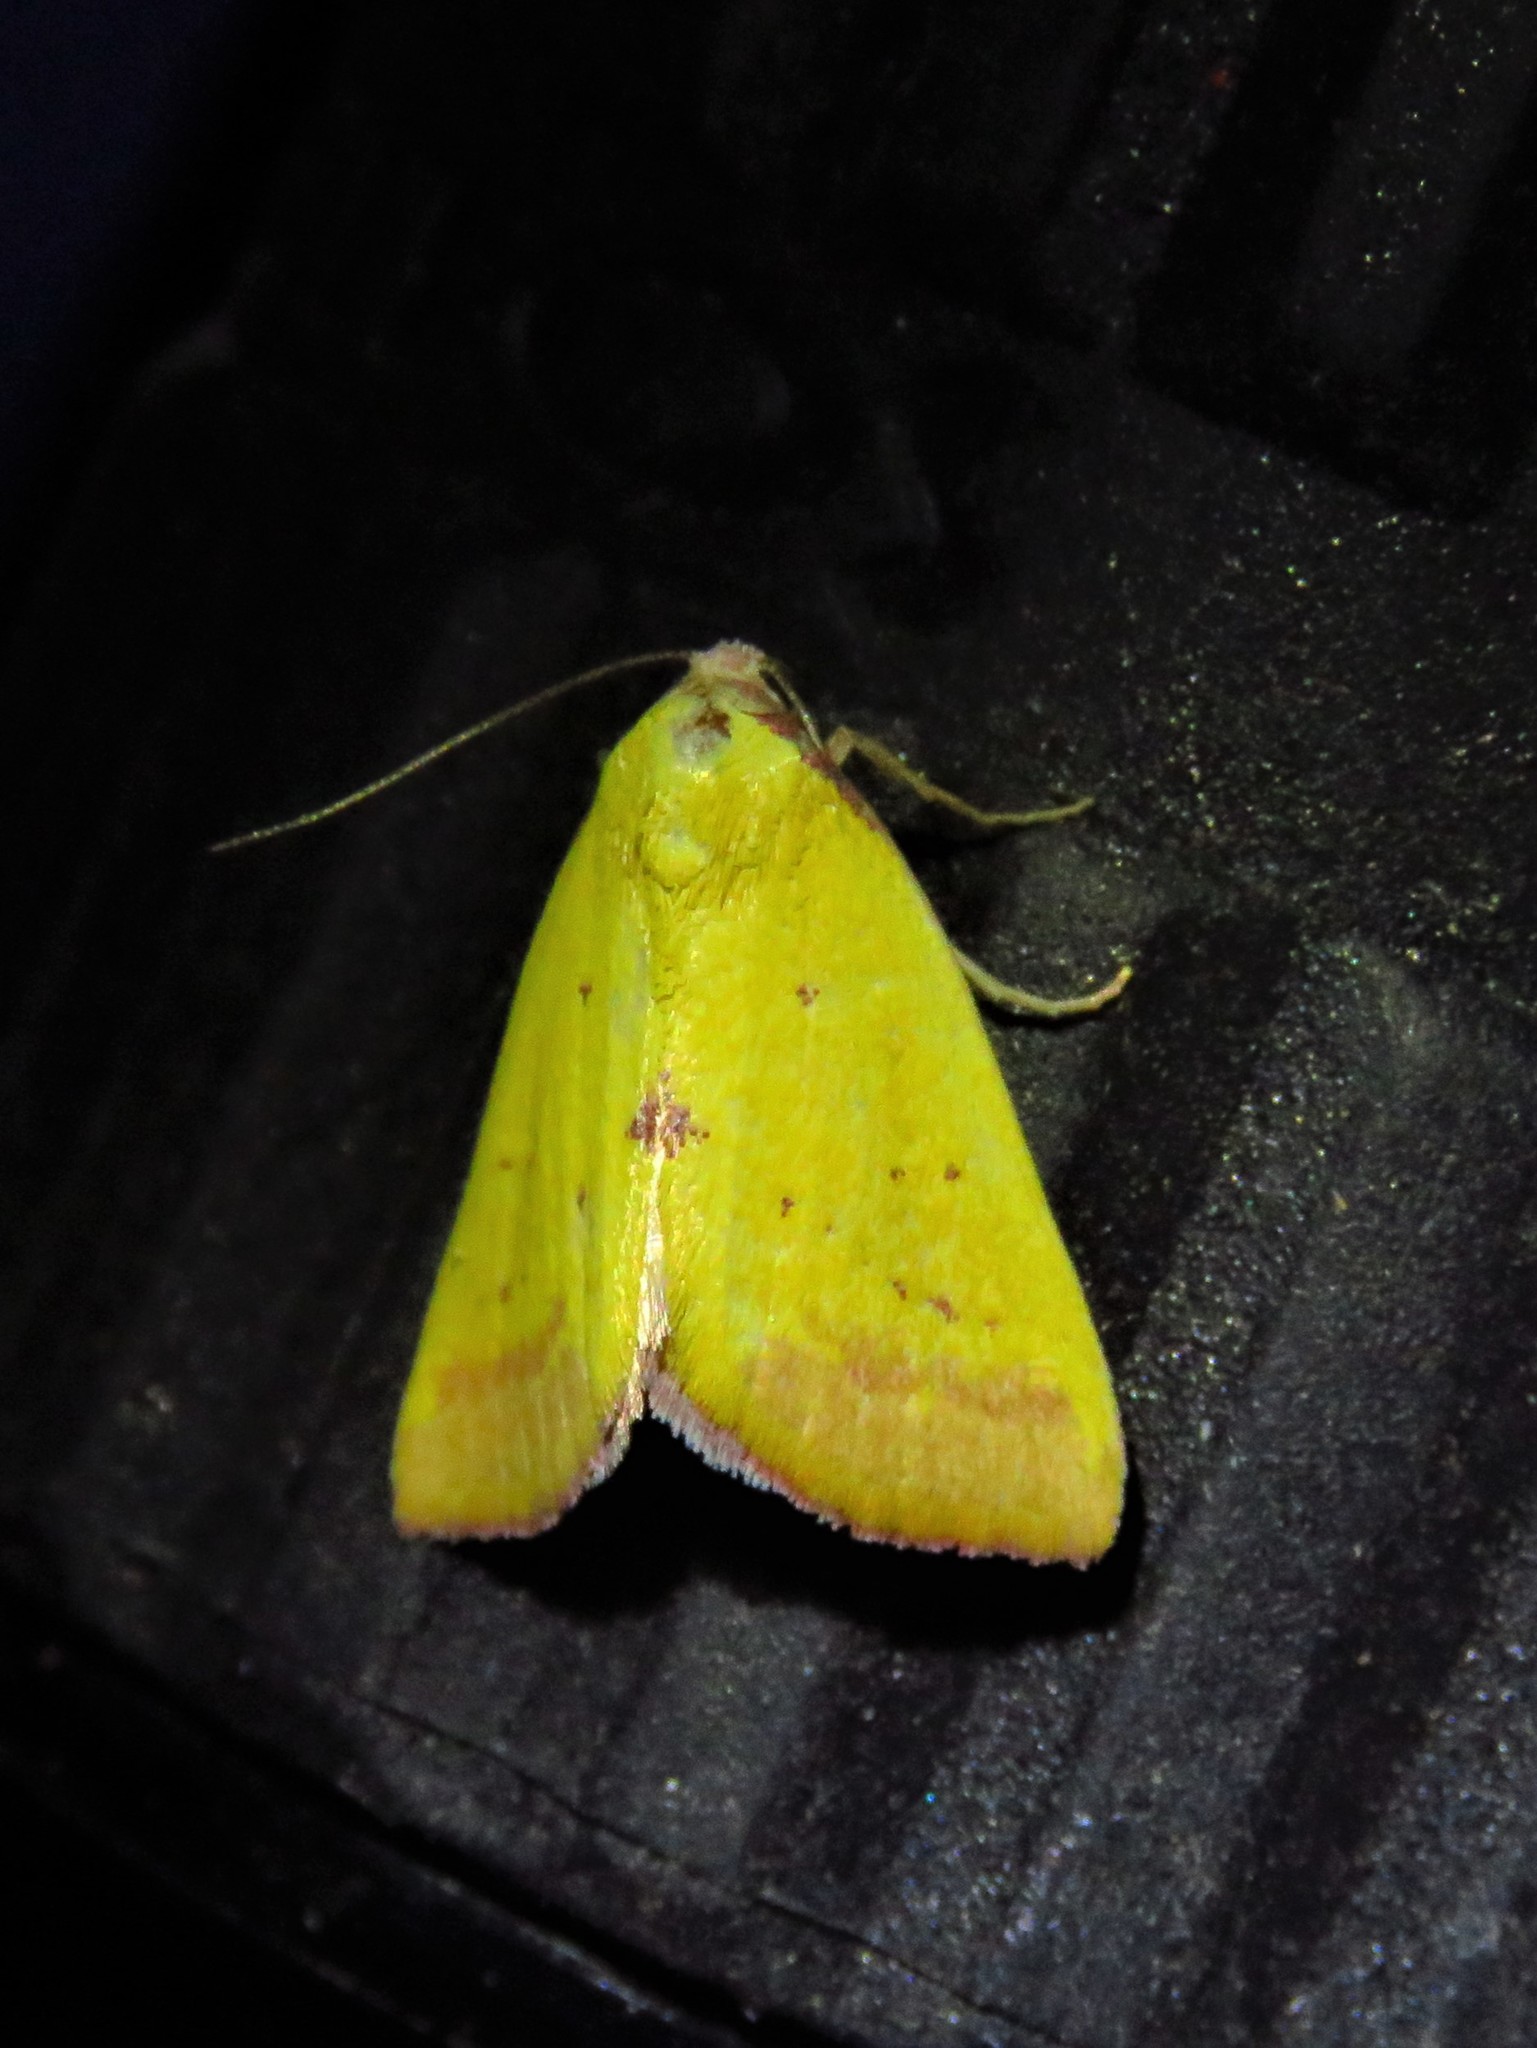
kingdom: Animalia
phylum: Arthropoda
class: Insecta
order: Lepidoptera
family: Erebidae
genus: Phytometra
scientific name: Phytometra orgiae
